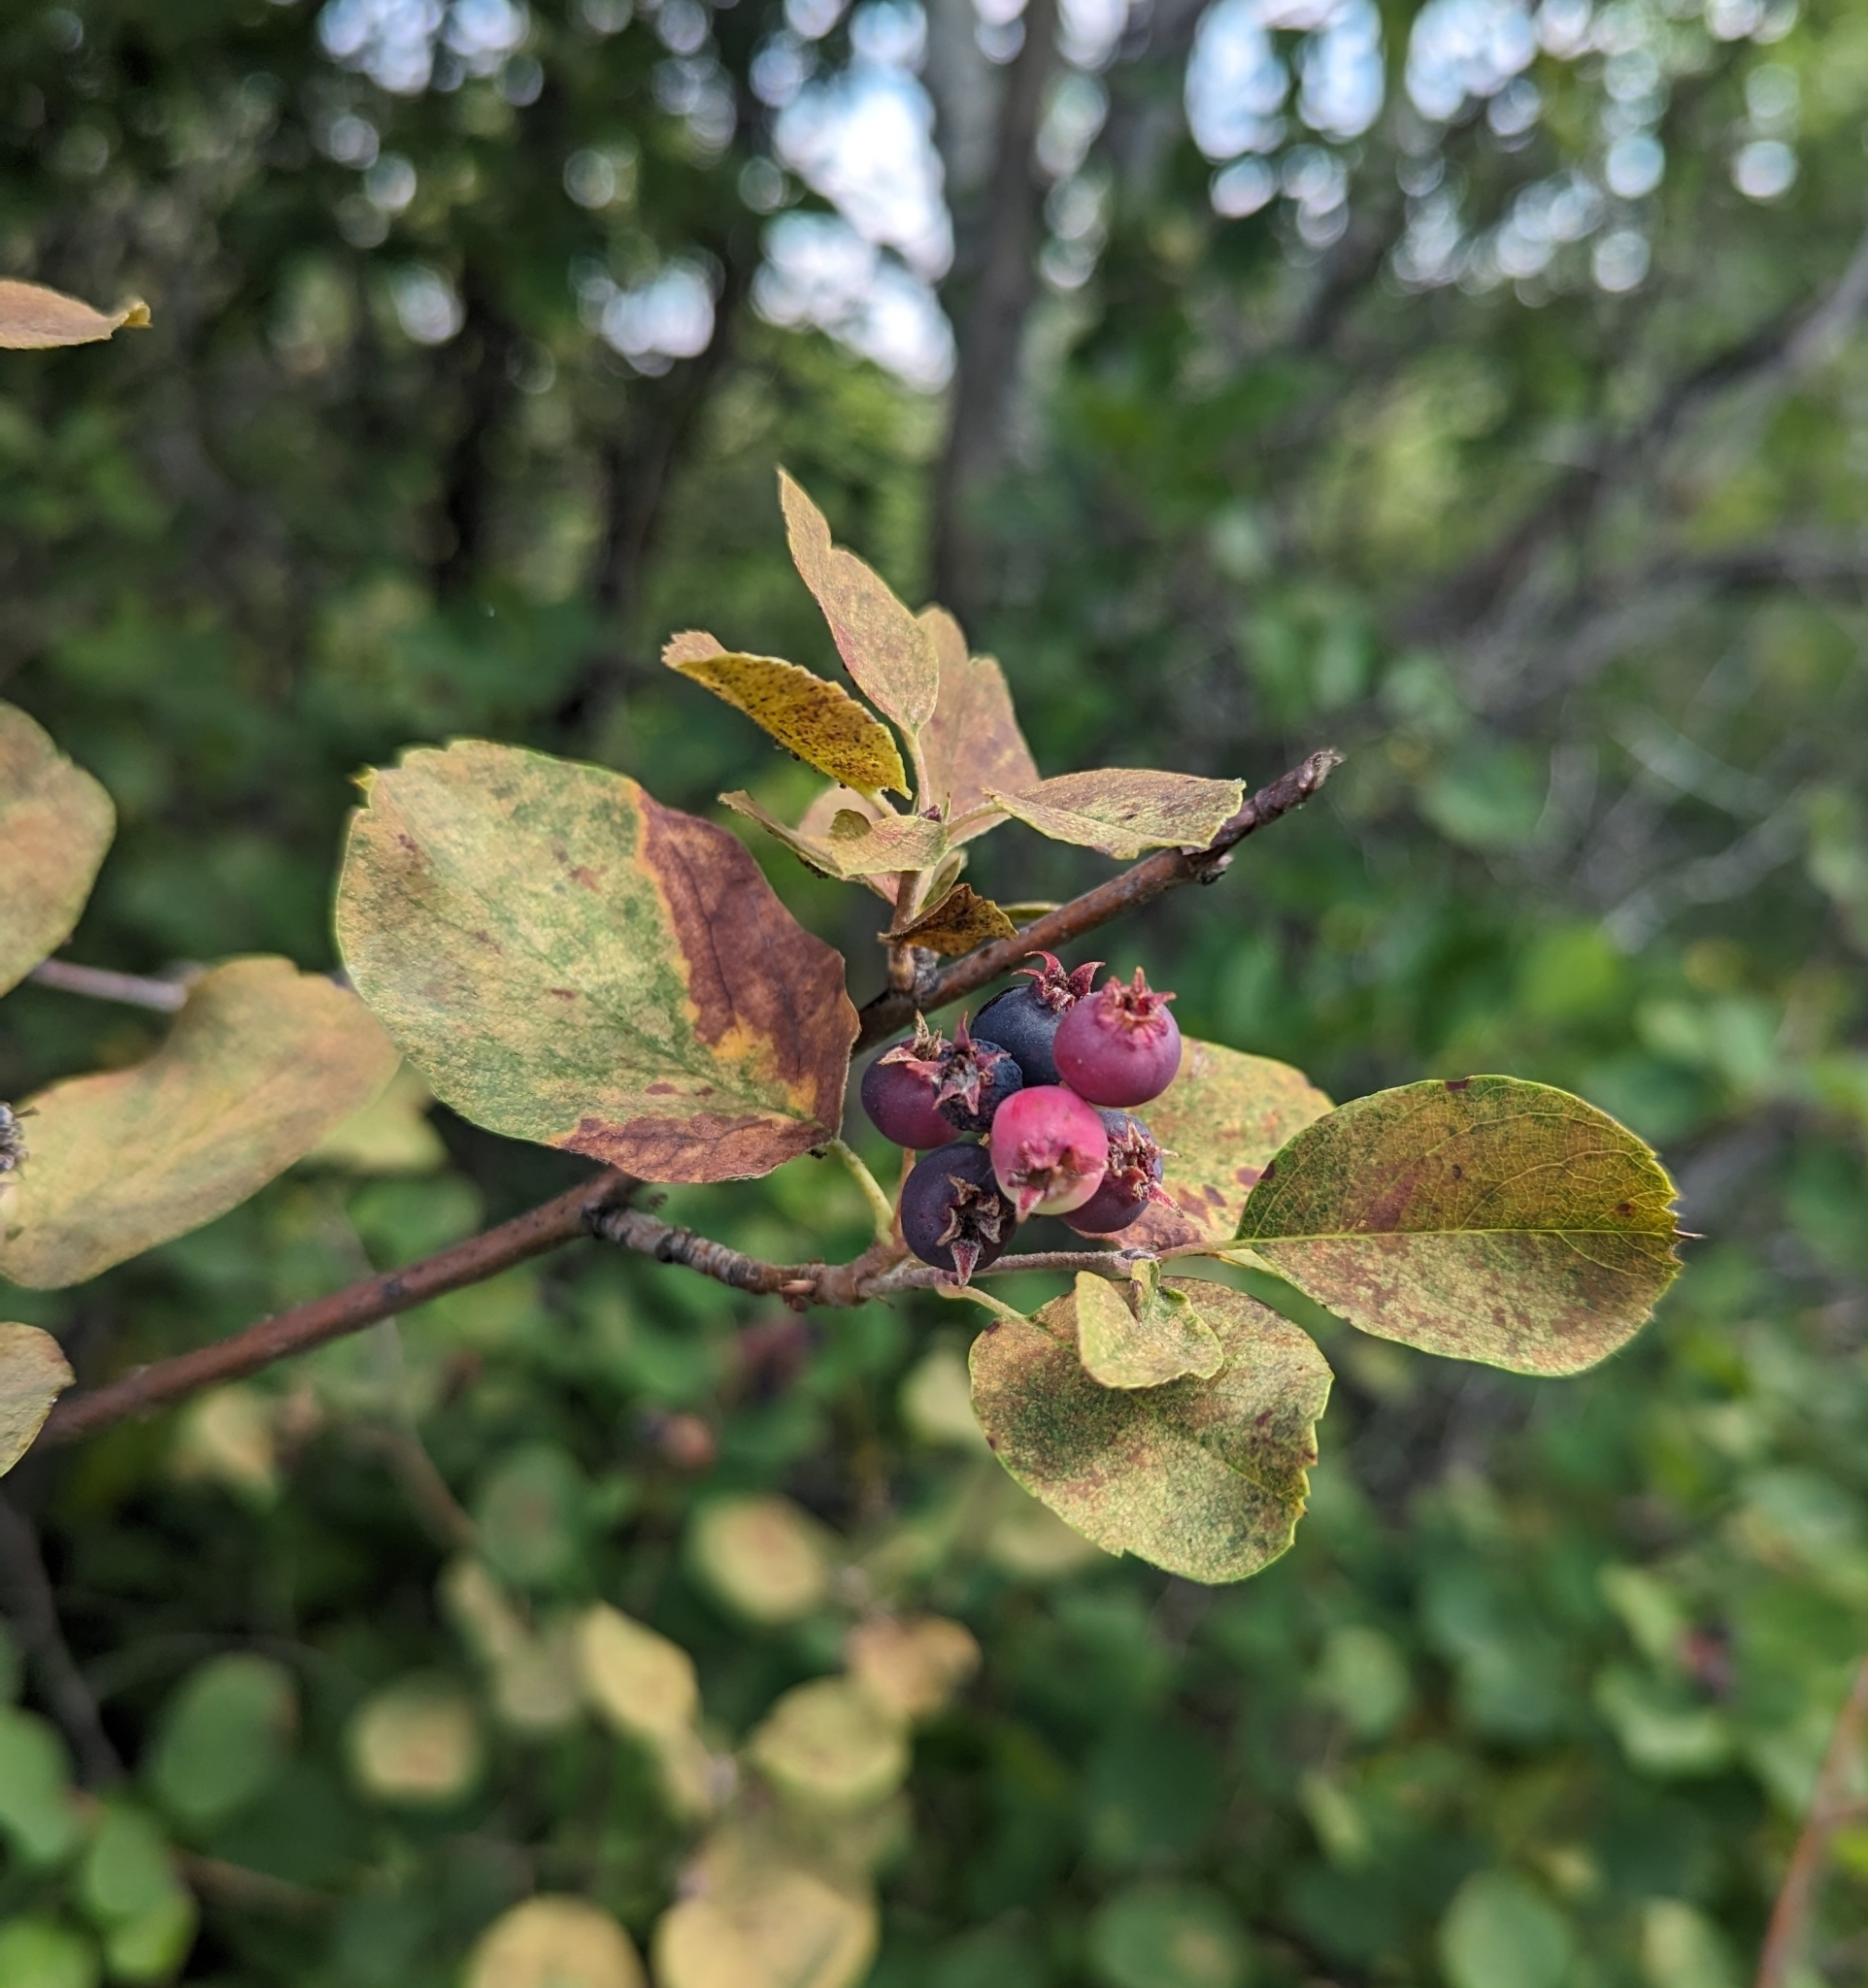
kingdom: Plantae
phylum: Tracheophyta
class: Magnoliopsida
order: Rosales
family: Rosaceae
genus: Amelanchier
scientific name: Amelanchier alnifolia
